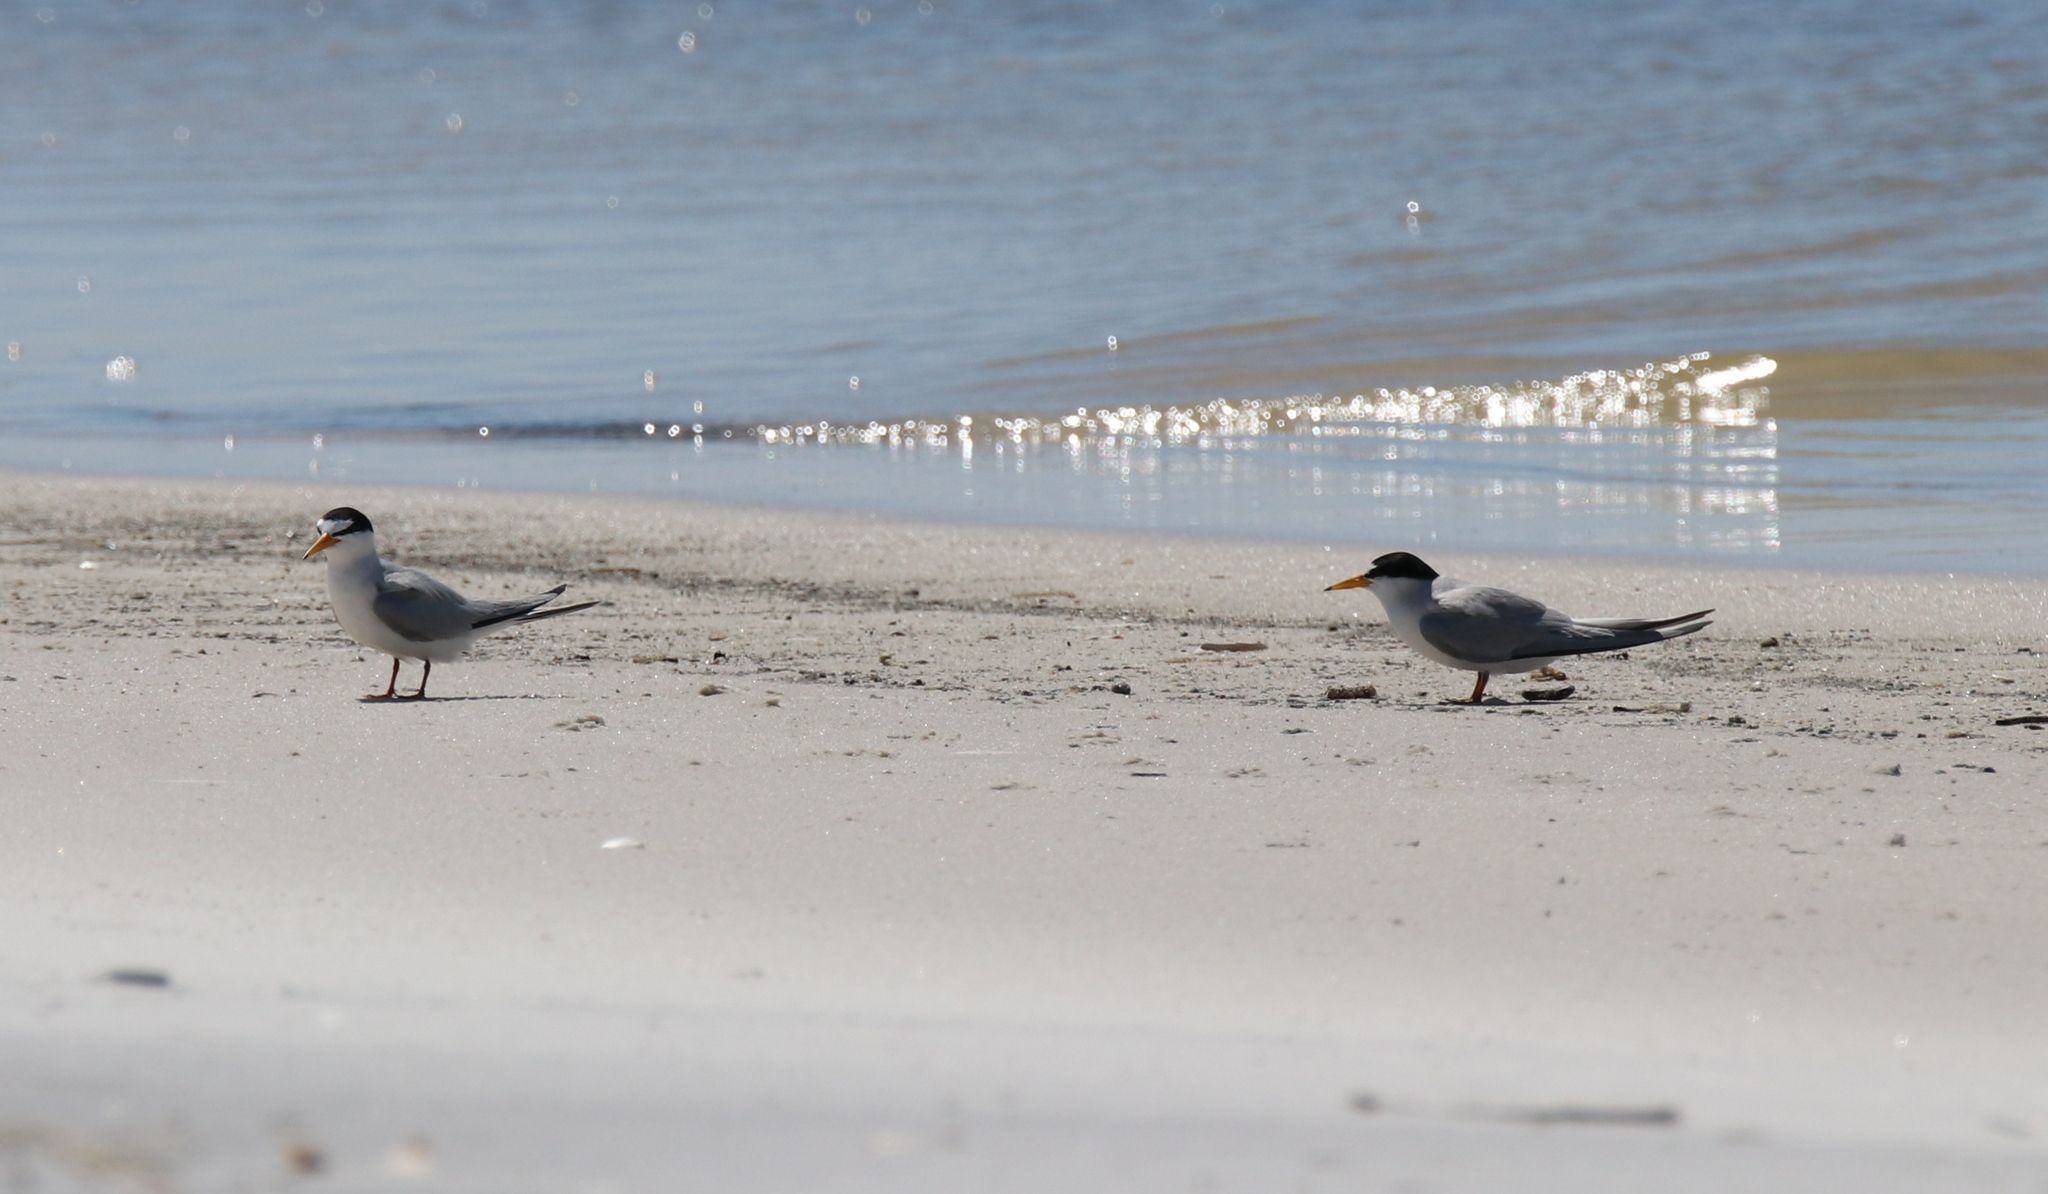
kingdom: Animalia
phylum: Chordata
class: Aves
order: Charadriiformes
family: Laridae
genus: Sternula
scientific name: Sternula antillarum
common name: Least tern
